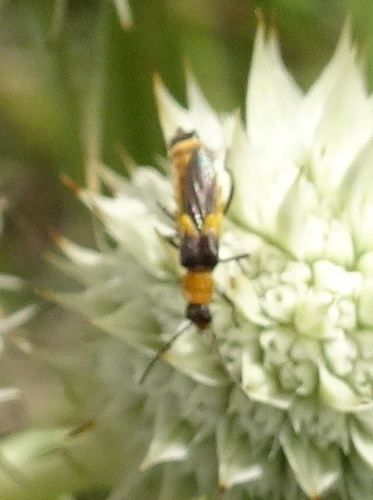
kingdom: Animalia
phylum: Arthropoda
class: Insecta
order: Coleoptera
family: Cantharidae
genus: Belotus
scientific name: Belotus abdominalis
